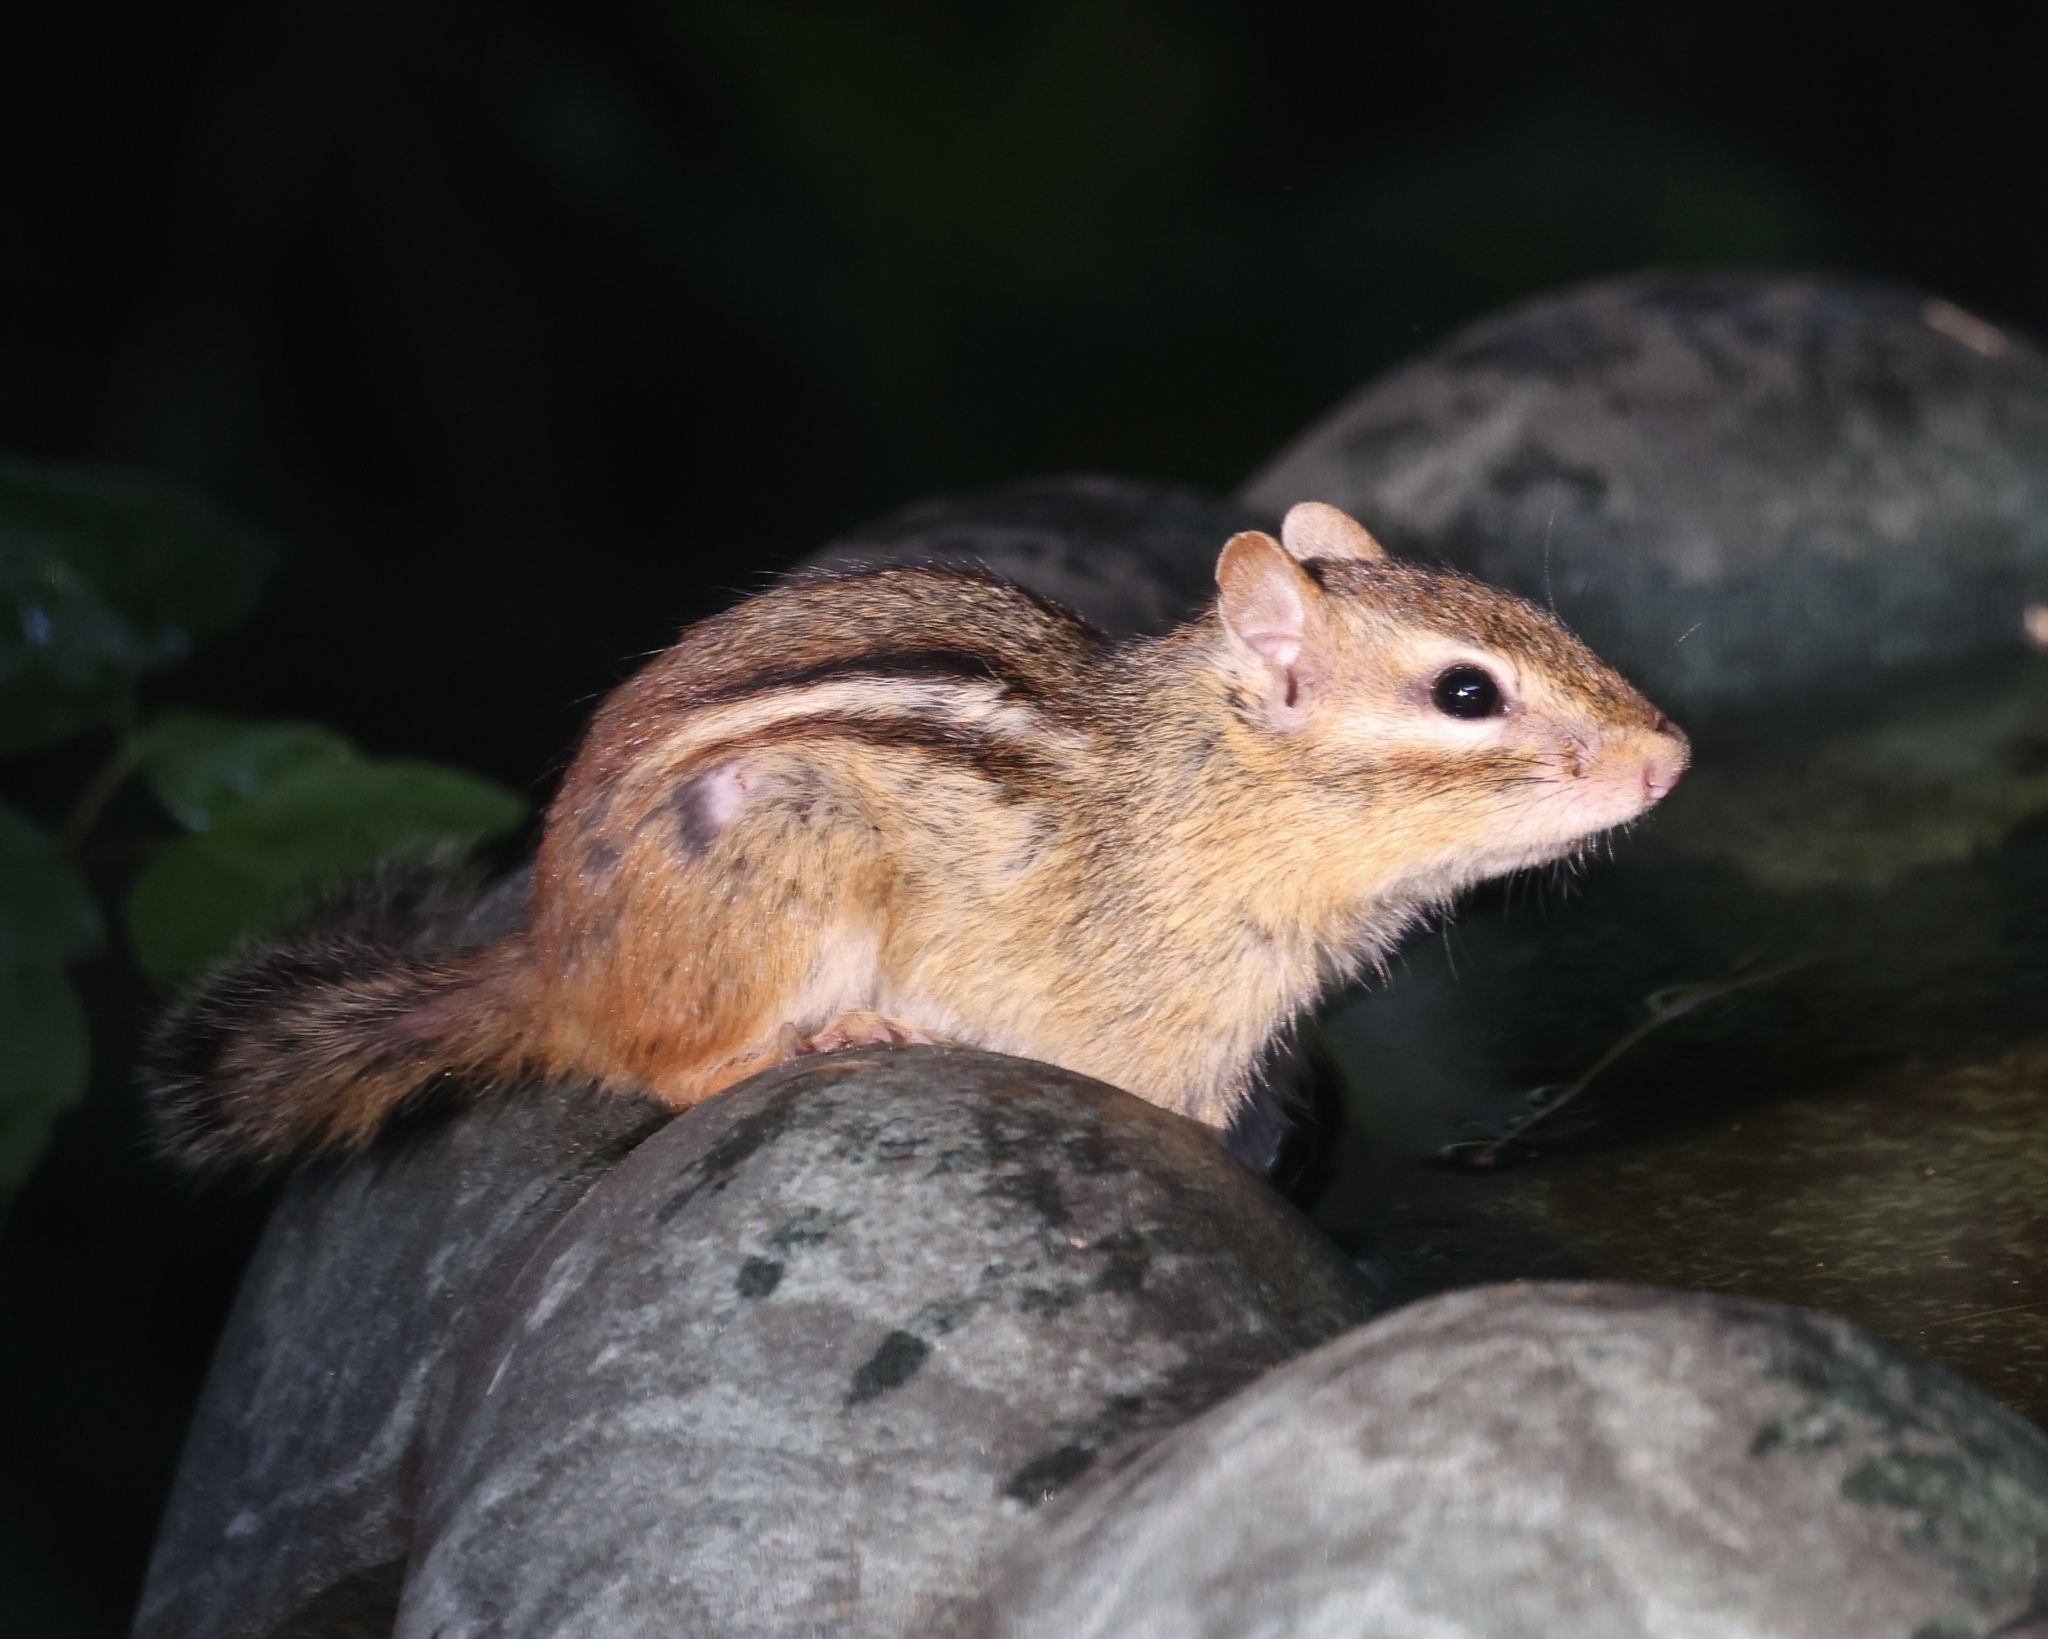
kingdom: Animalia
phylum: Chordata
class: Mammalia
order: Rodentia
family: Sciuridae
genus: Tamias
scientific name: Tamias striatus
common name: Eastern chipmunk
